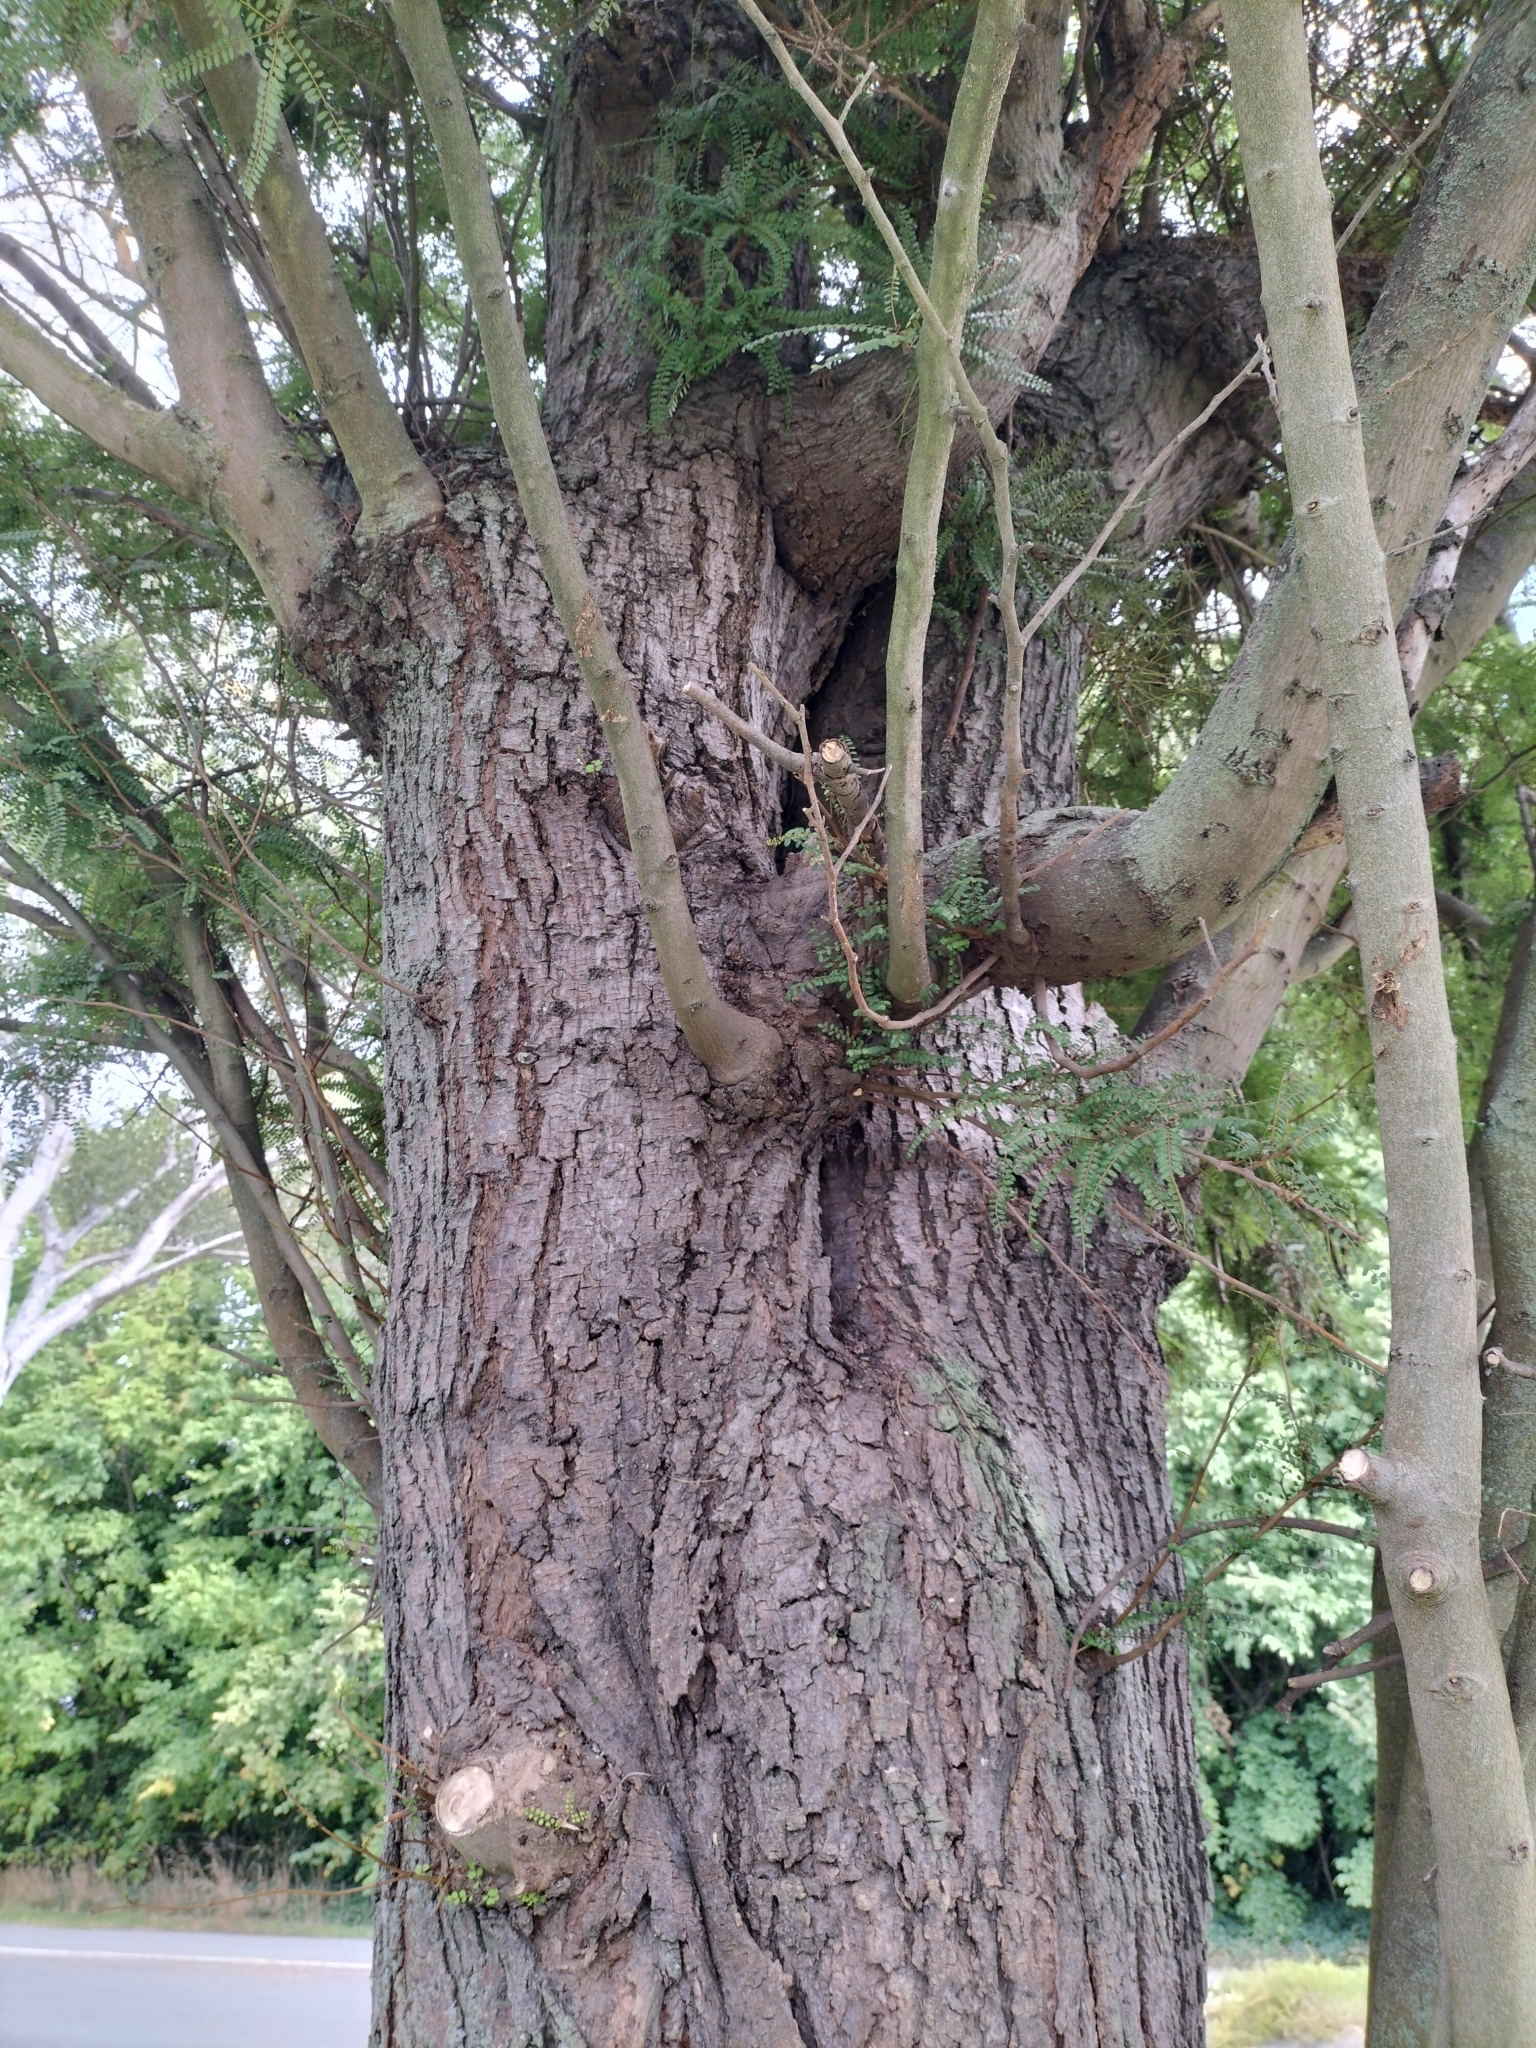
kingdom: Plantae
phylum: Tracheophyta
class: Magnoliopsida
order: Fabales
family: Fabaceae
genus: Sophora
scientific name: Sophora microphylla
